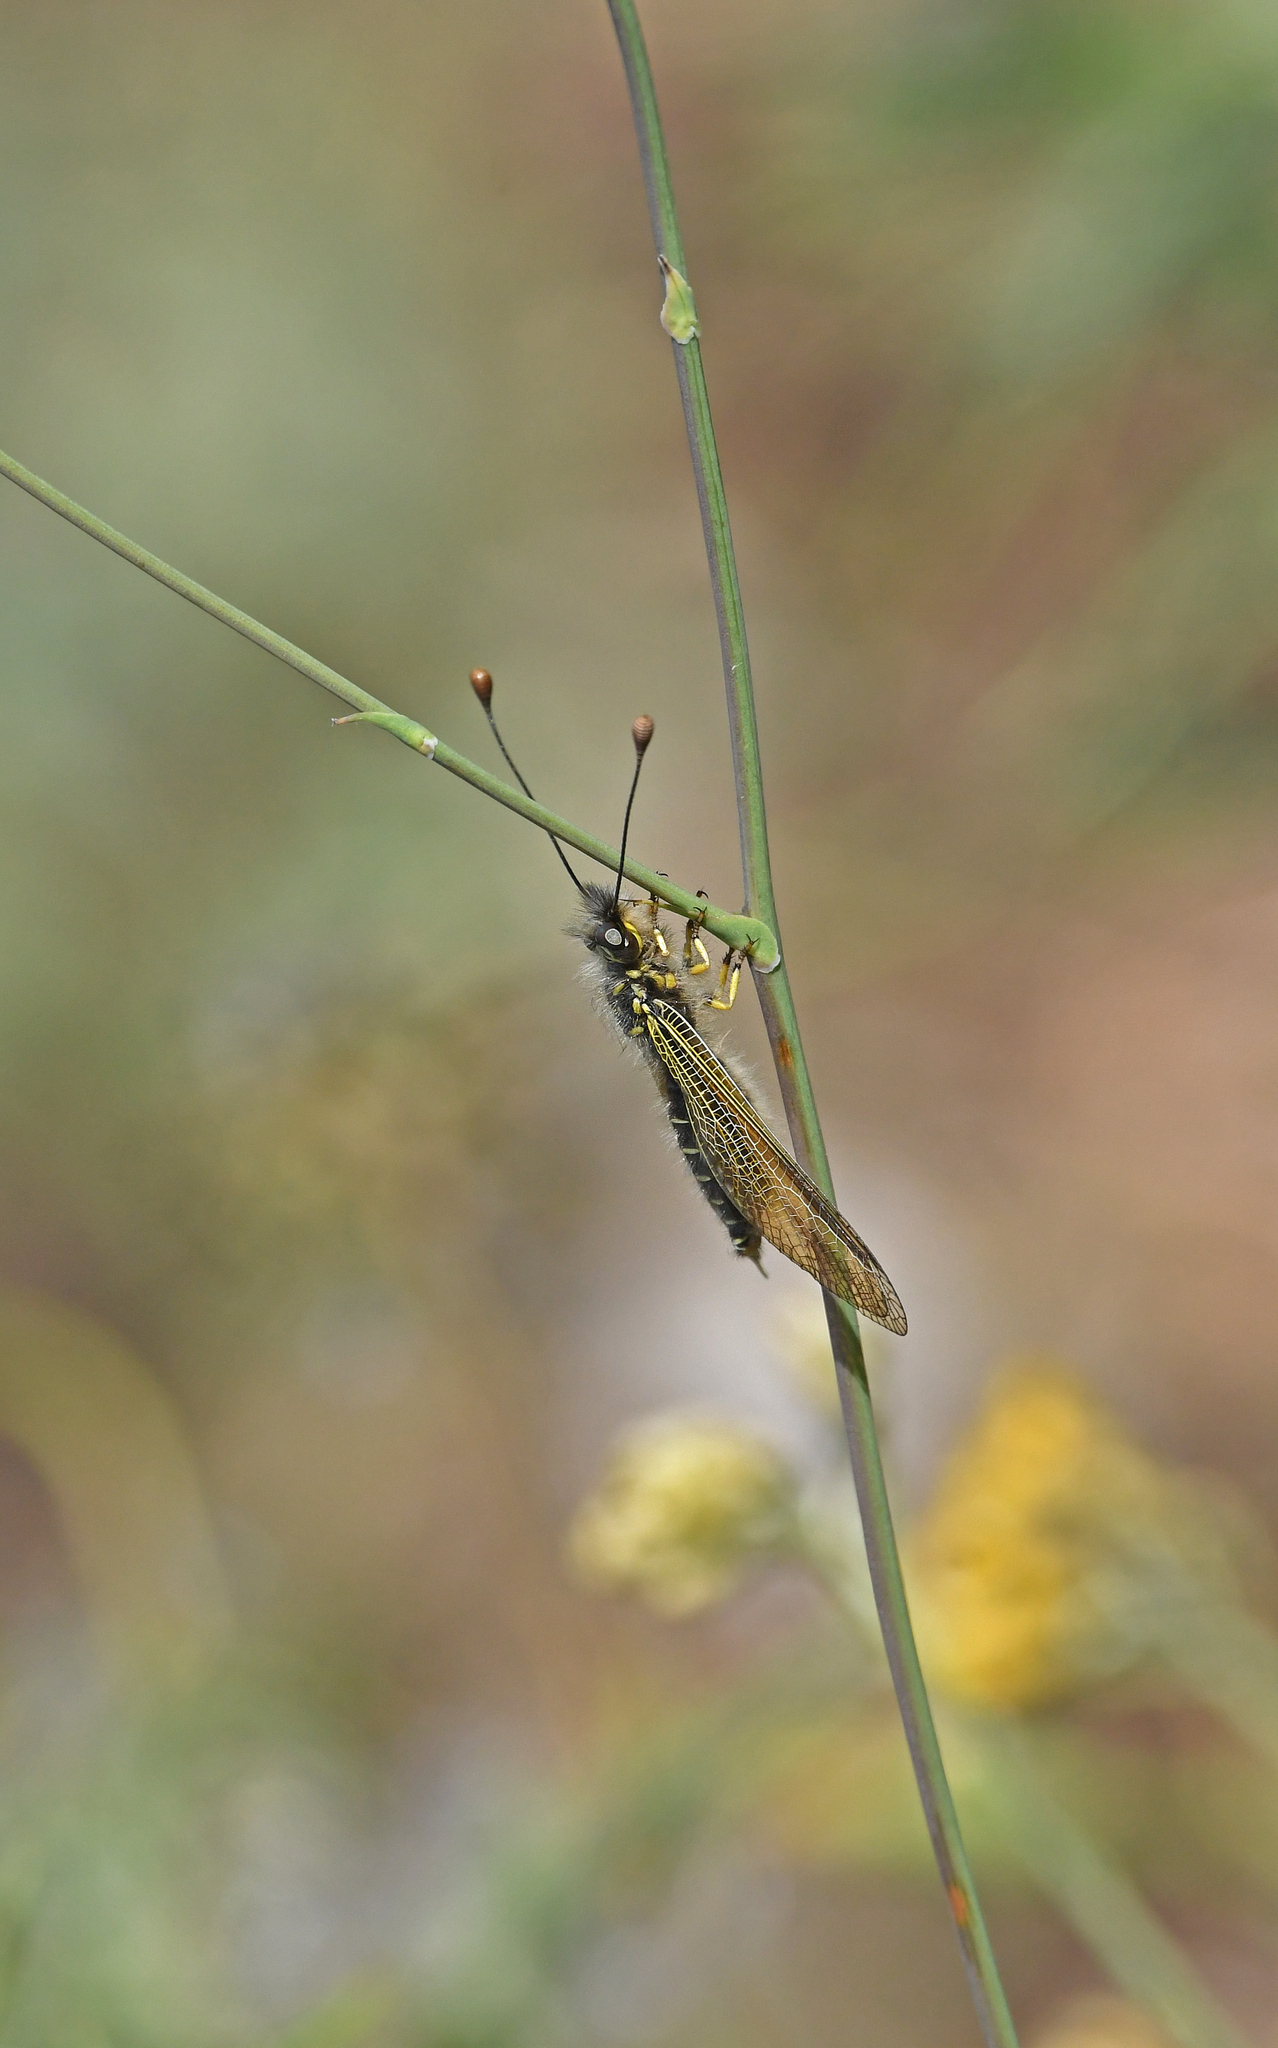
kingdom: Animalia
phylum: Arthropoda
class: Insecta
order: Neuroptera
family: Ascalaphidae
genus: Libelloides
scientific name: Libelloides ictericus
